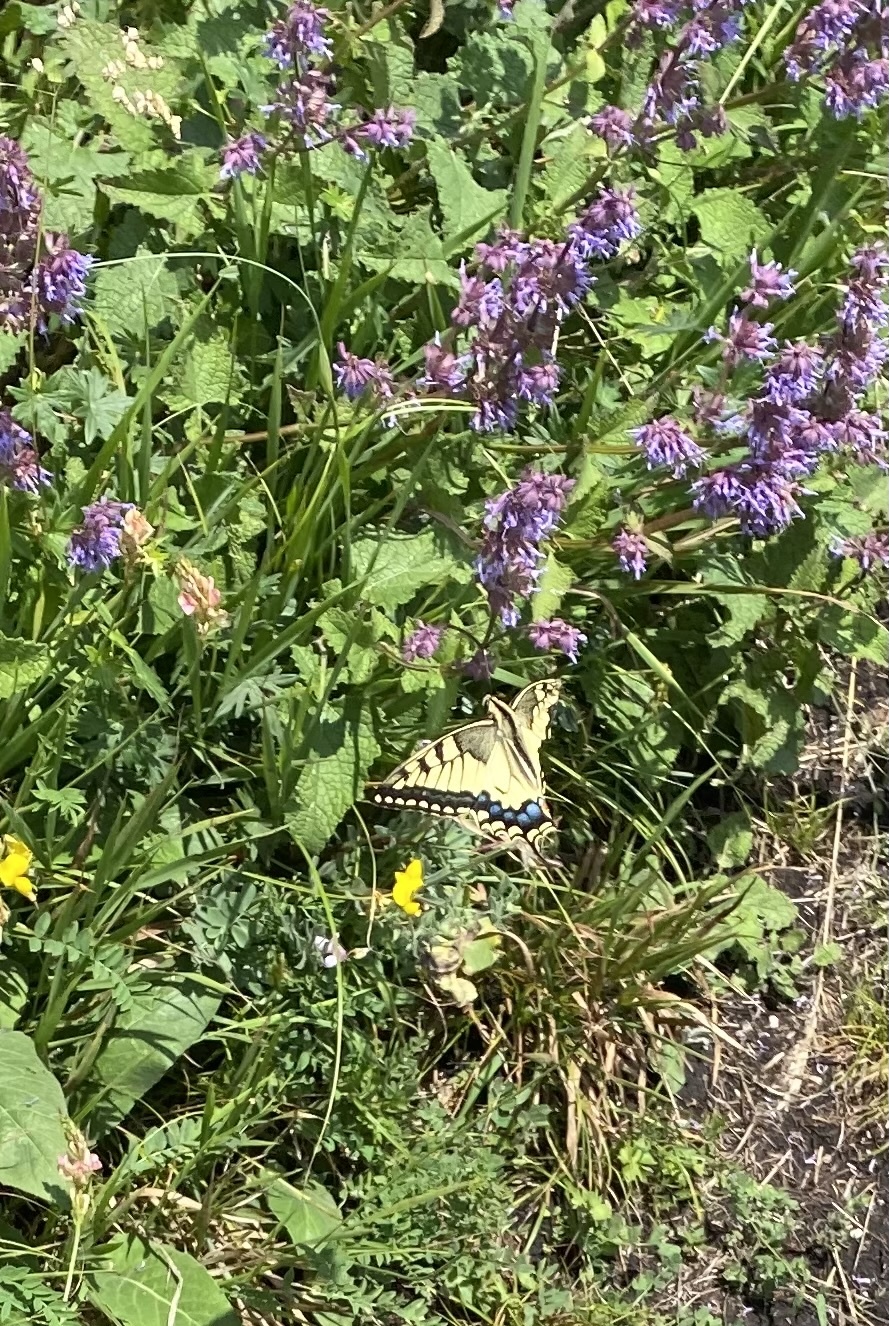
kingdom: Animalia
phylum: Arthropoda
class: Insecta
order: Lepidoptera
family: Papilionidae
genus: Papilio
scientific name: Papilio machaon
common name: Swallowtail
